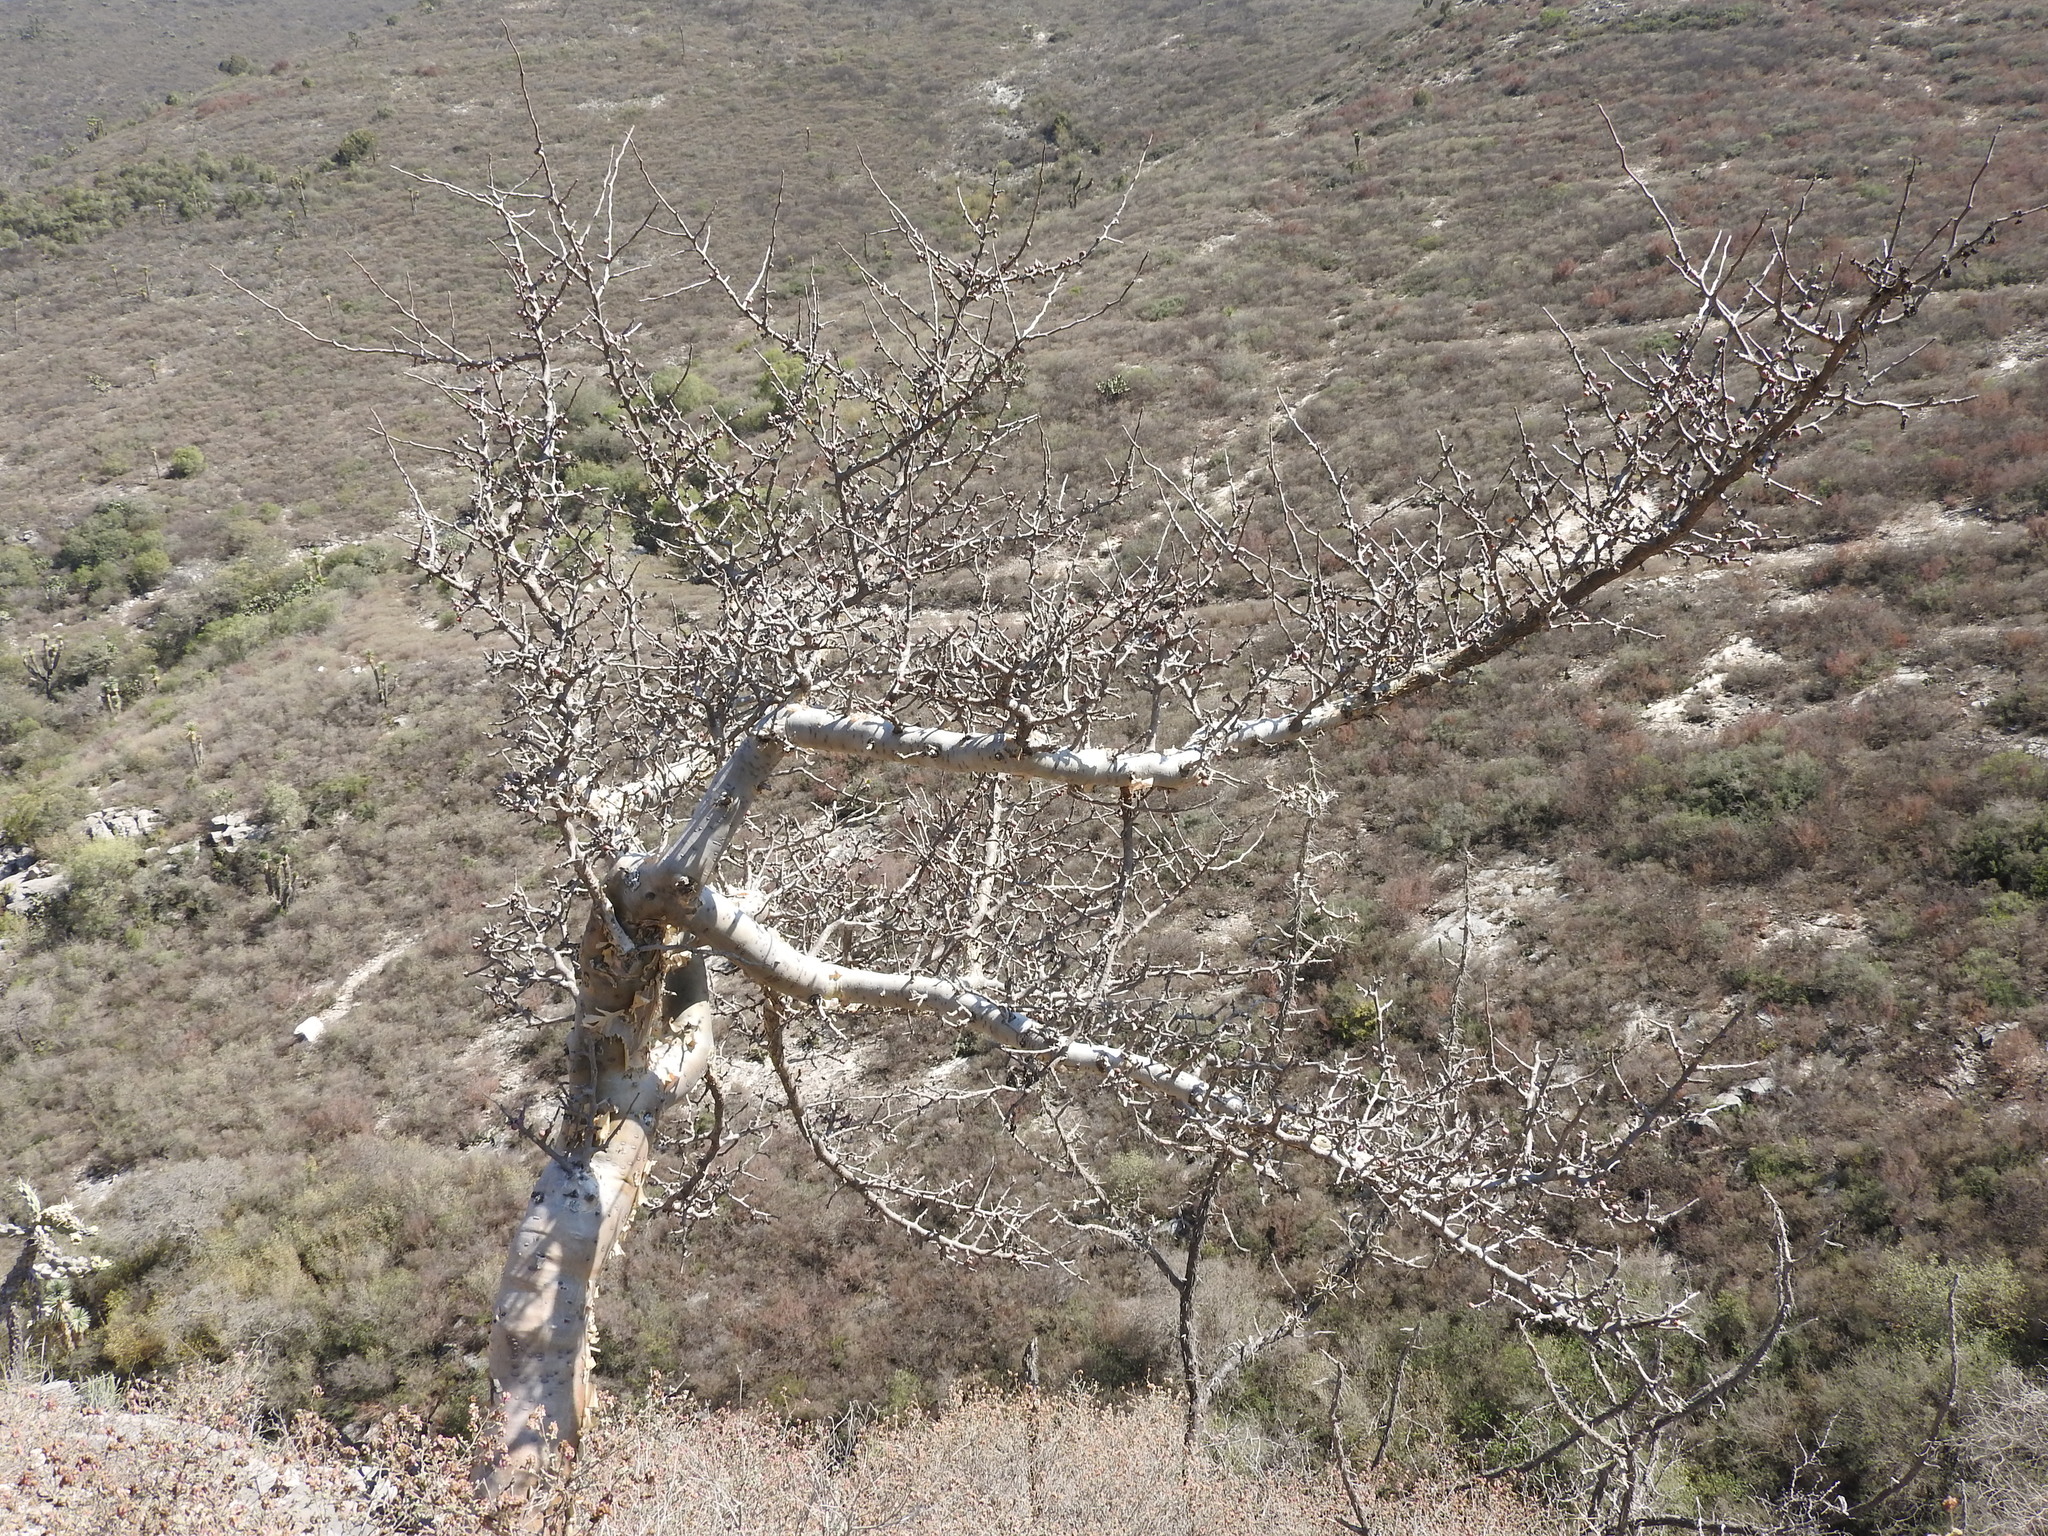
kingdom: Plantae
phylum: Tracheophyta
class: Magnoliopsida
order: Sapindales
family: Burseraceae
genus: Bursera
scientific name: Bursera fagaroides
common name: Elephant tree
